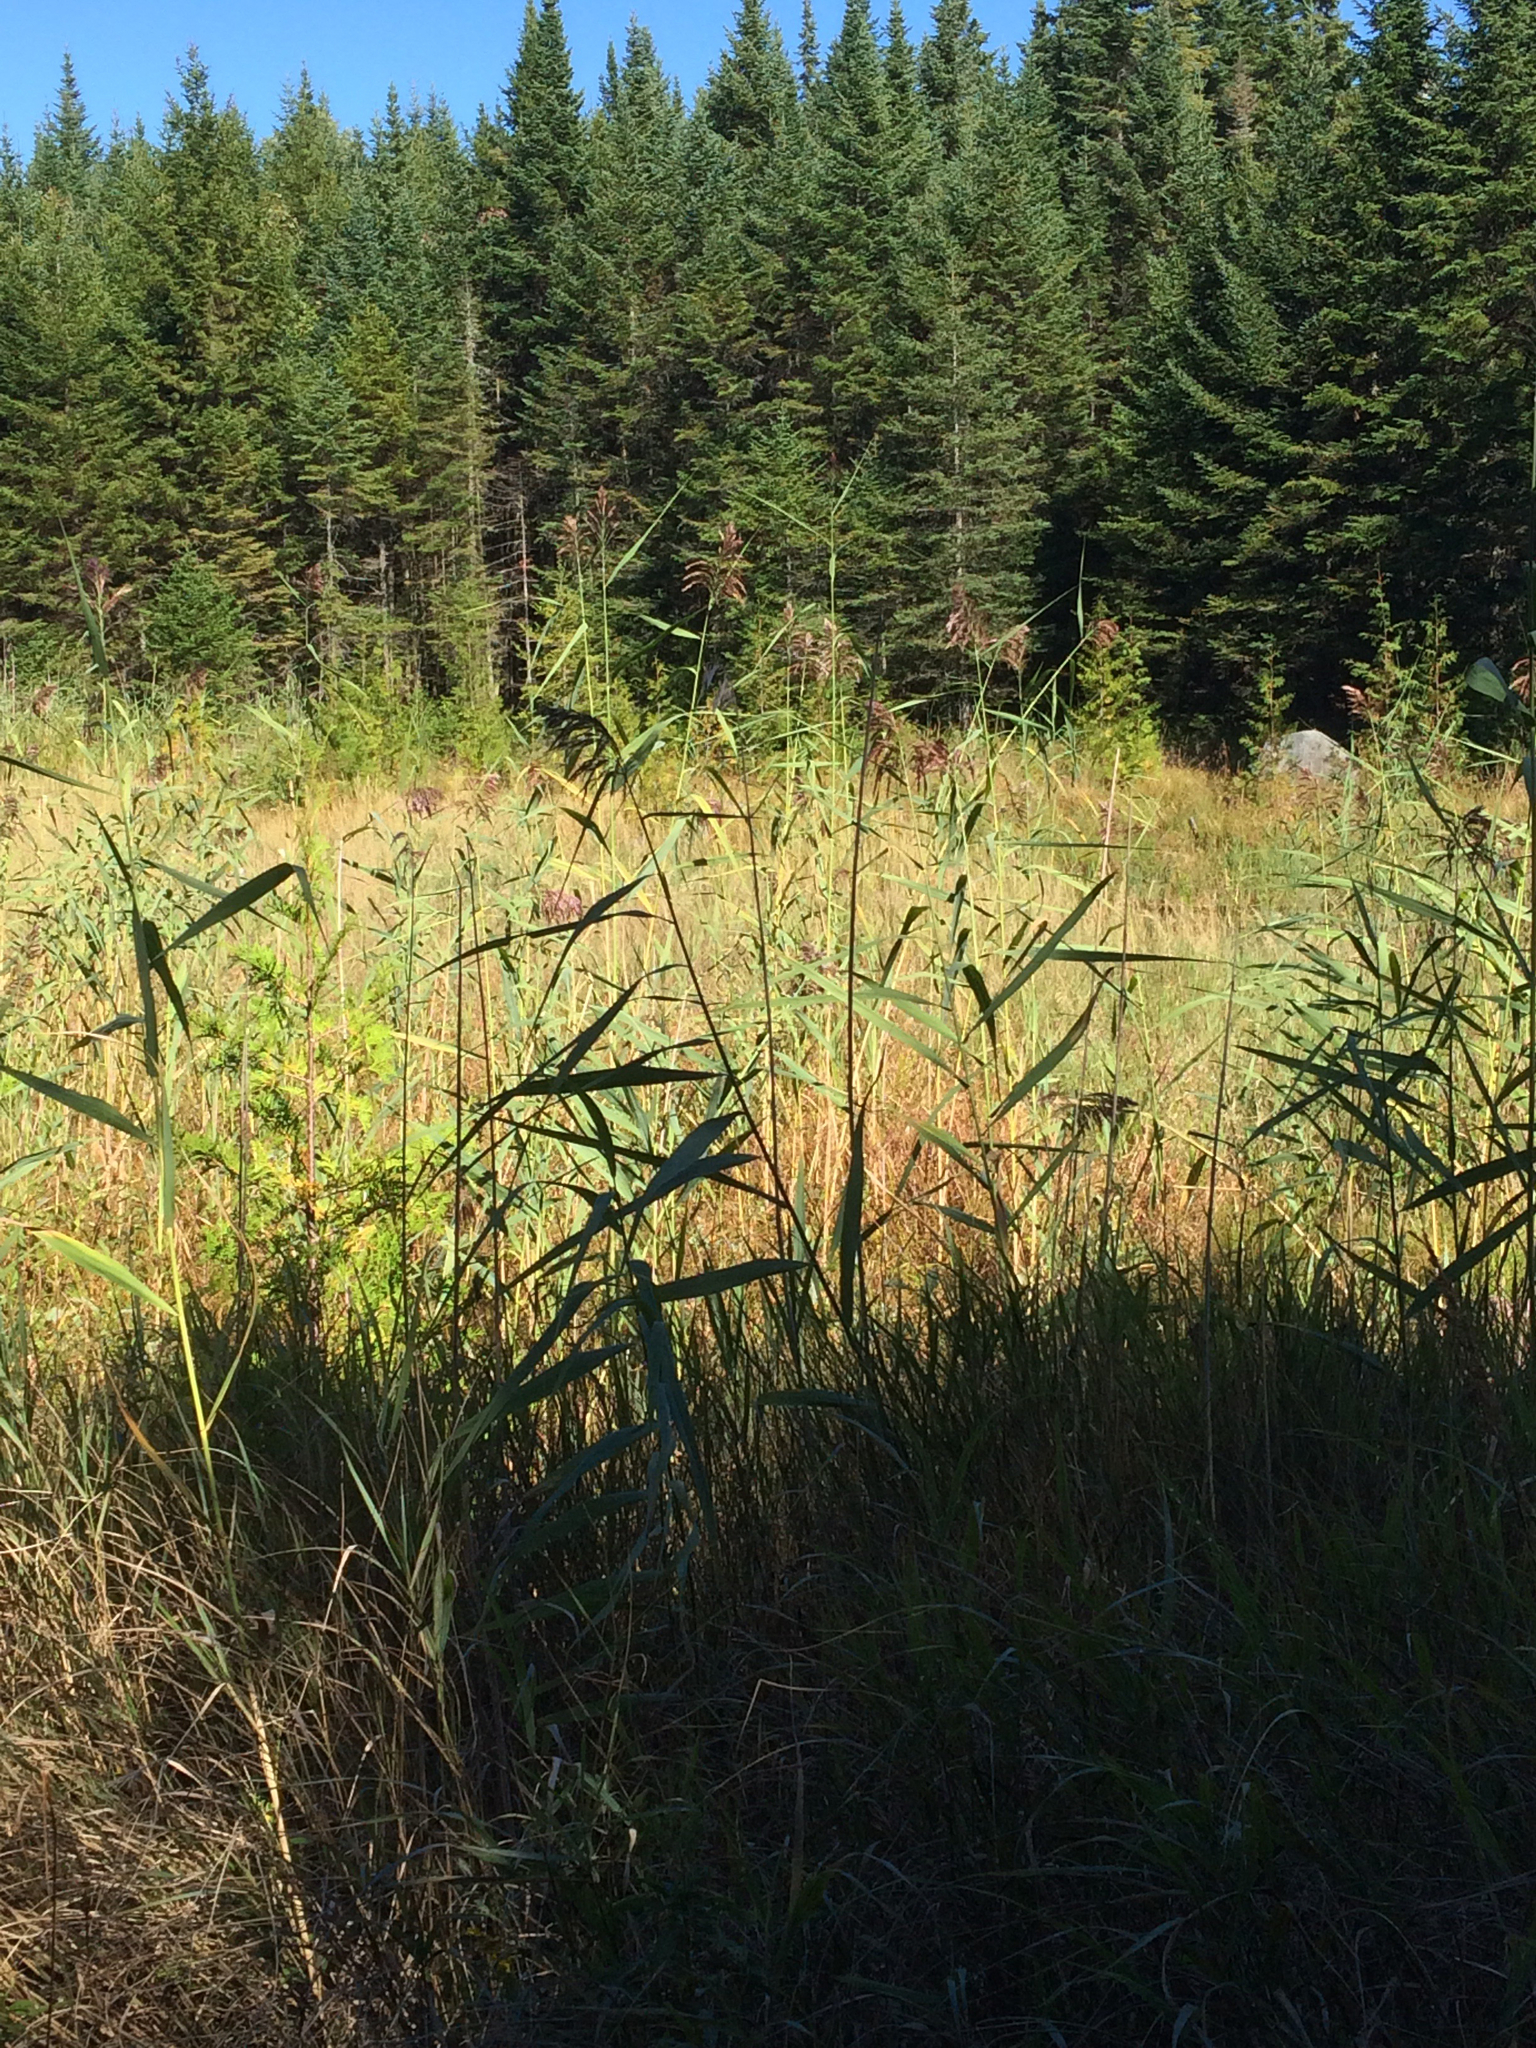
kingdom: Plantae
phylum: Tracheophyta
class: Pinopsida
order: Pinales
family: Cupressaceae
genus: Thuja
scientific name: Thuja occidentalis
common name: Northern white-cedar
